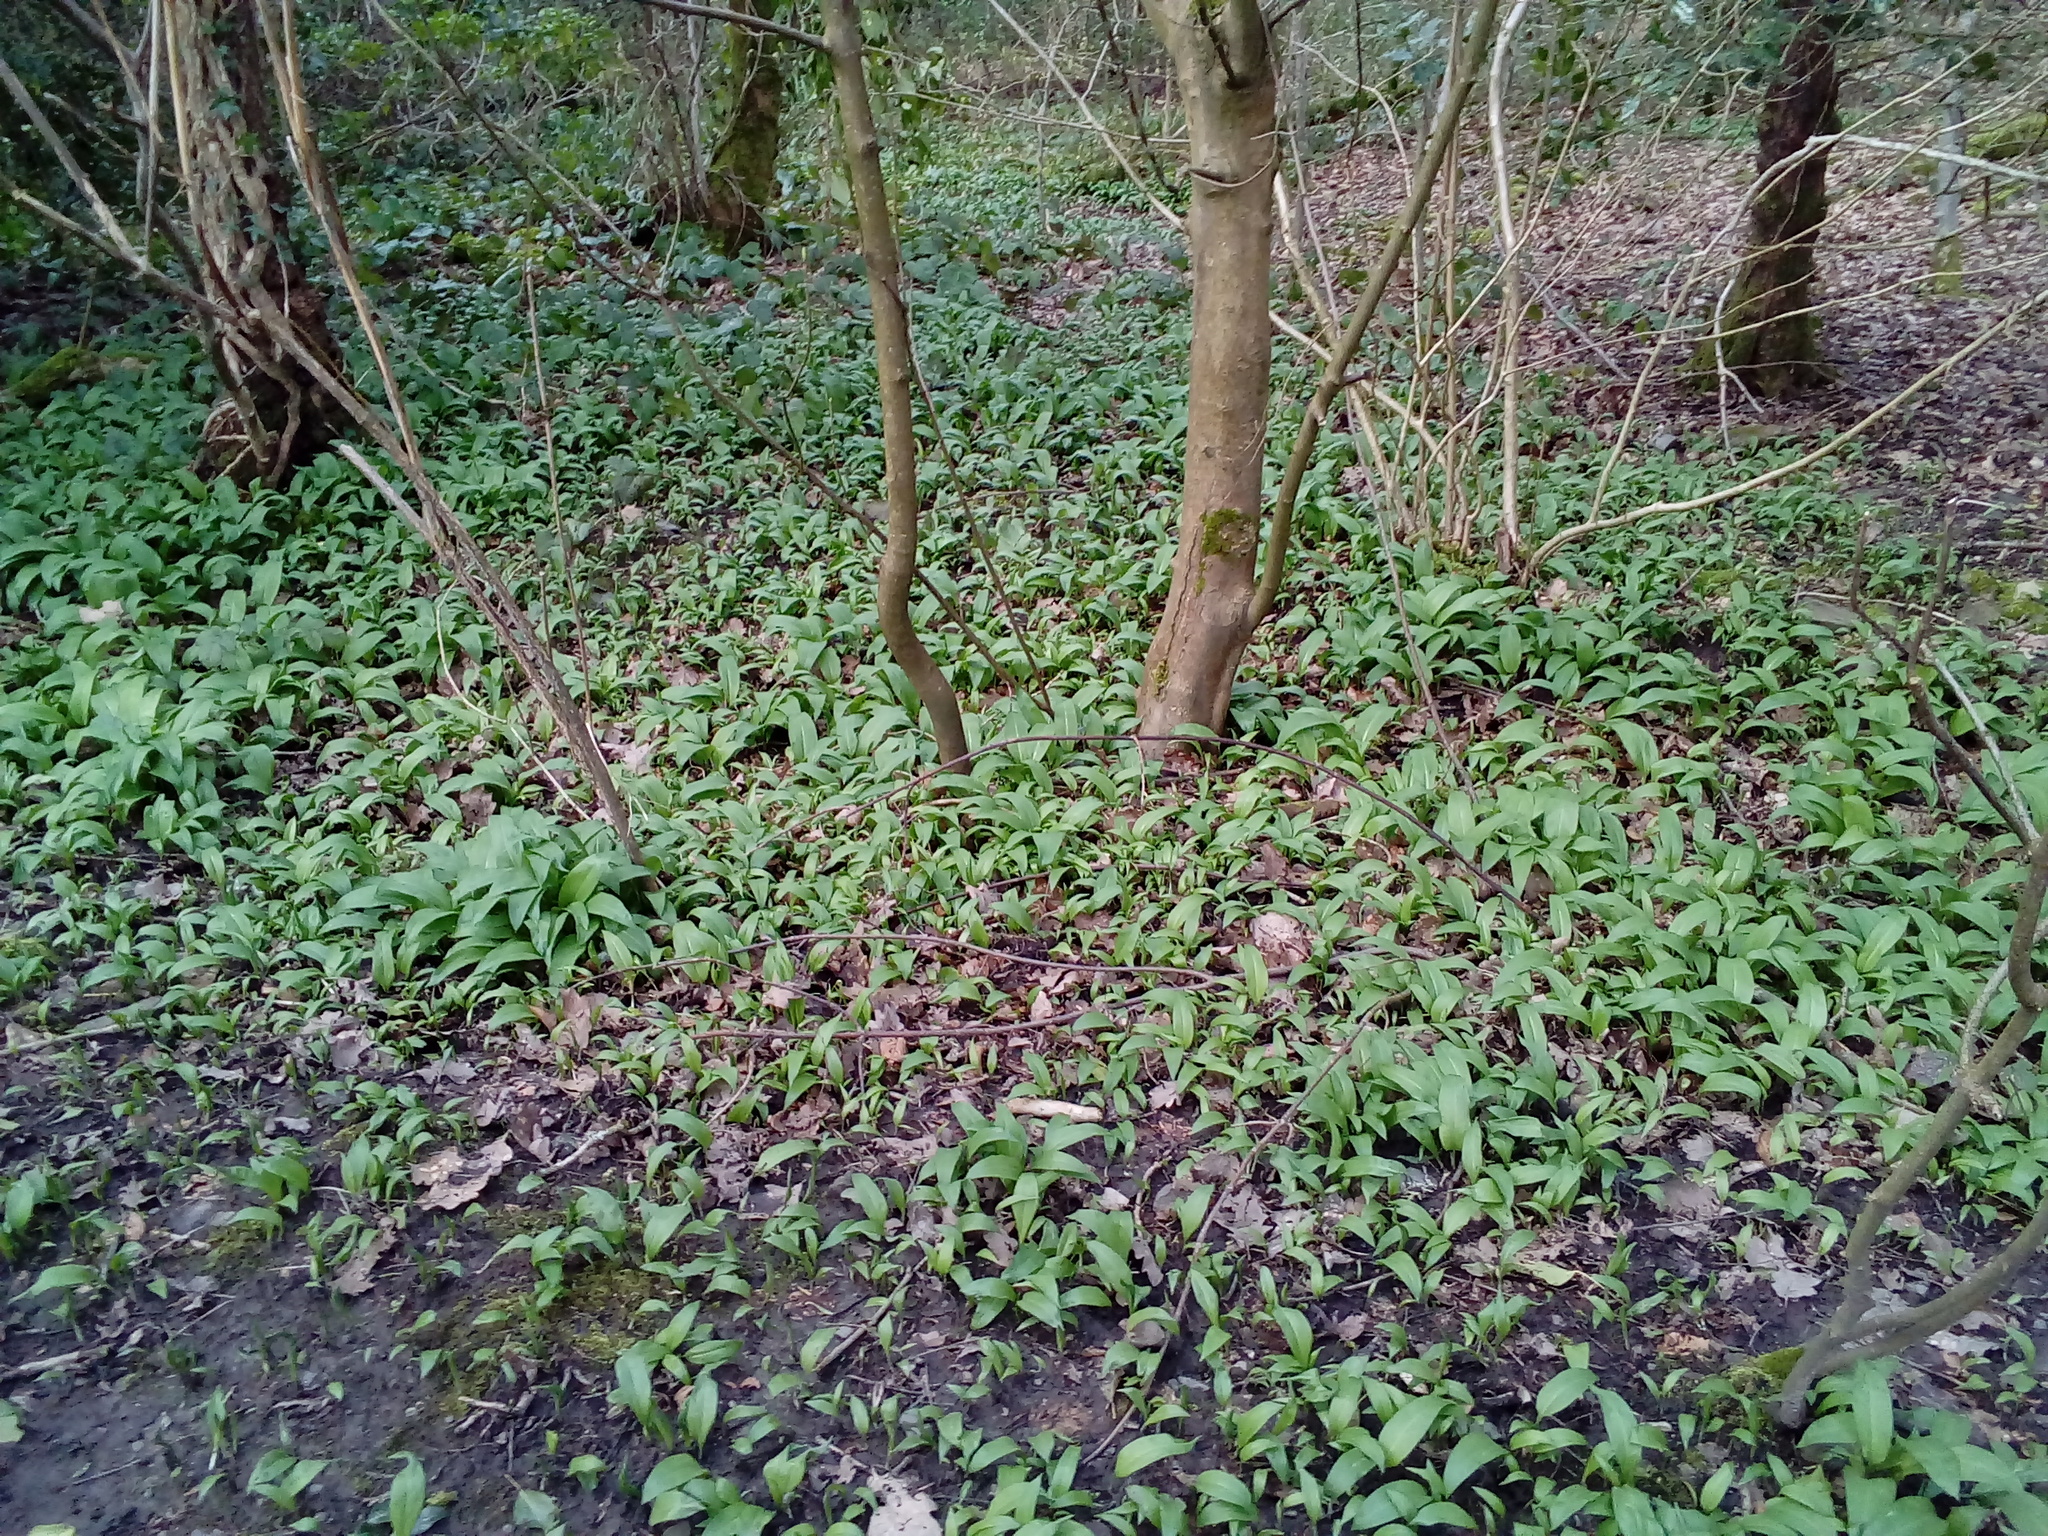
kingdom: Plantae
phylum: Tracheophyta
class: Liliopsida
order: Asparagales
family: Amaryllidaceae
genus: Allium
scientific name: Allium ursinum
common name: Ramsons
